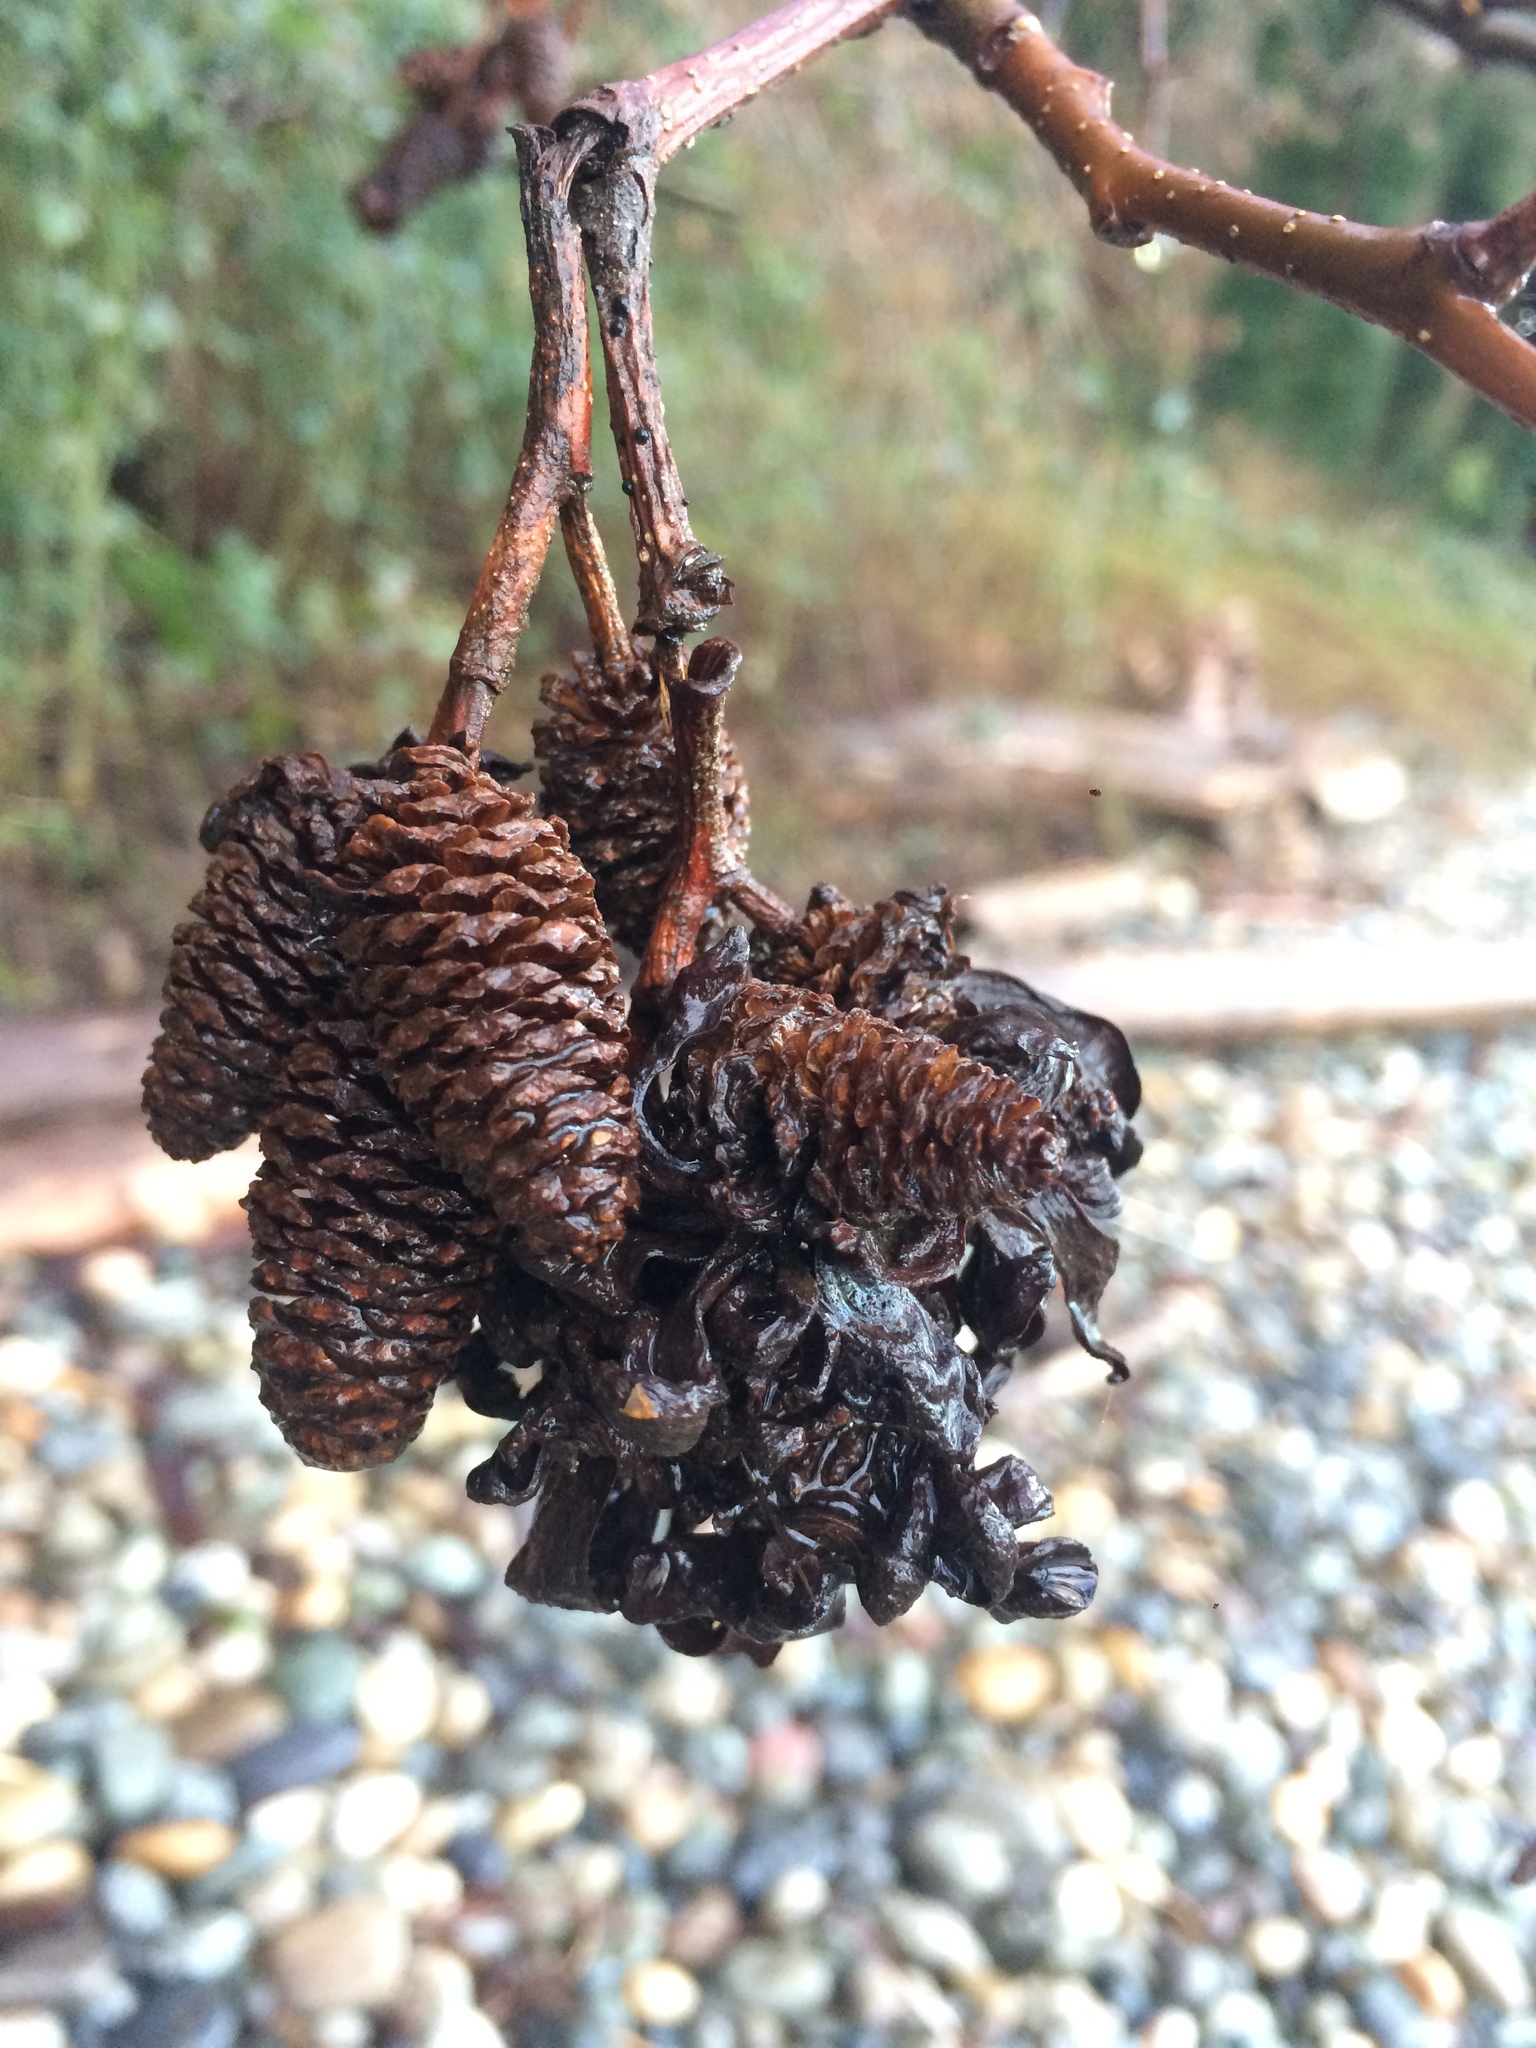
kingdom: Fungi
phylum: Ascomycota
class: Taphrinomycetes
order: Taphrinales
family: Taphrinaceae
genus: Taphrina
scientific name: Taphrina occidentalis
